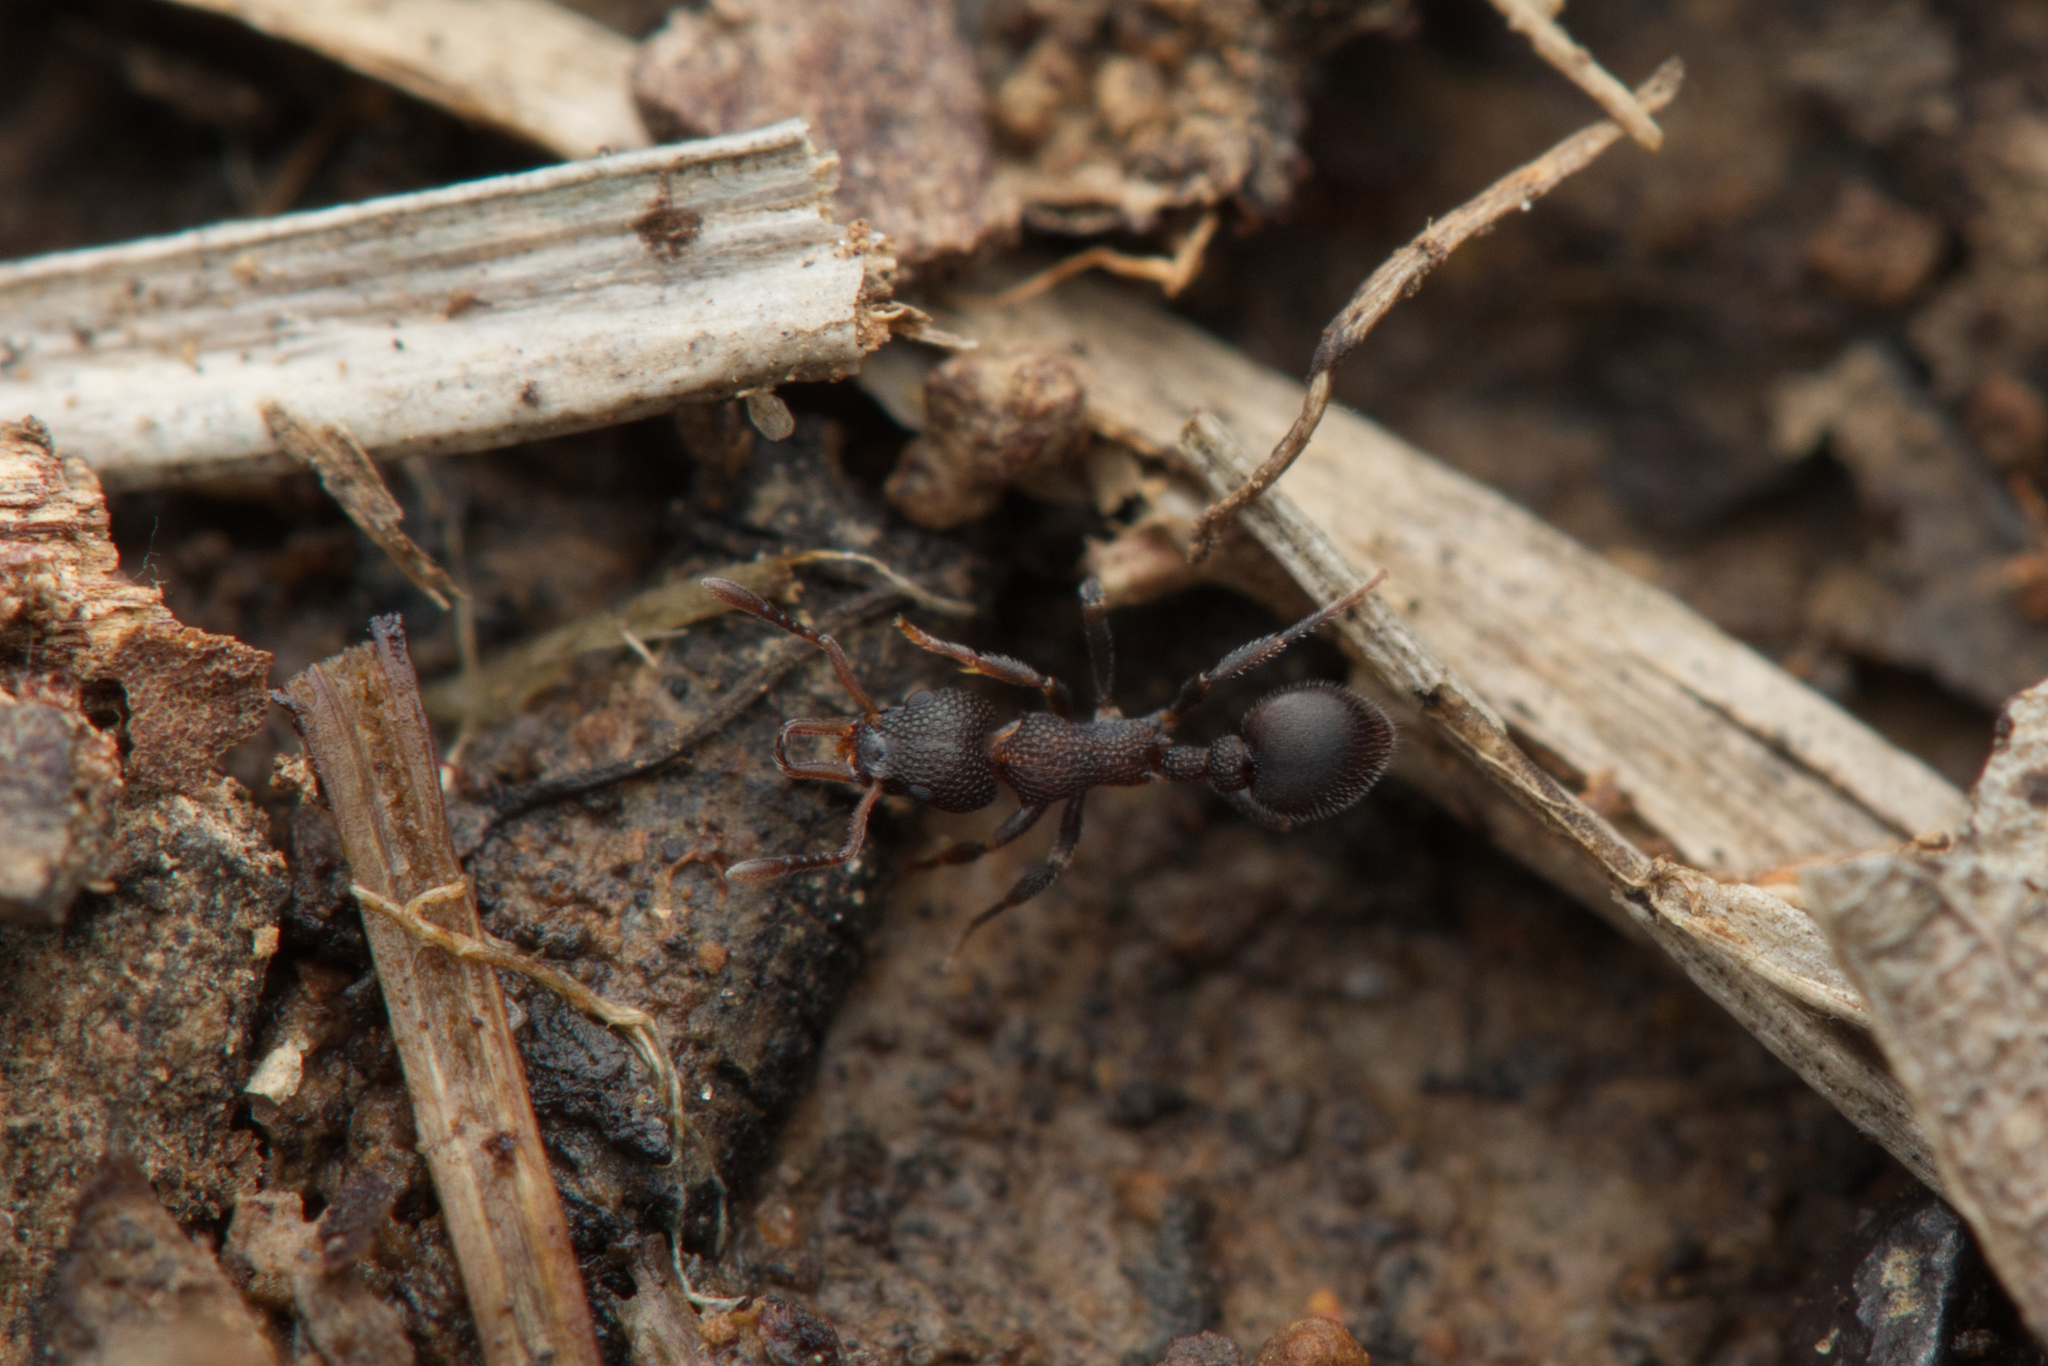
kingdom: Animalia
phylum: Arthropoda
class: Insecta
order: Hymenoptera
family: Formicidae
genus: Epopostruma
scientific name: Epopostruma quadrispinosa
